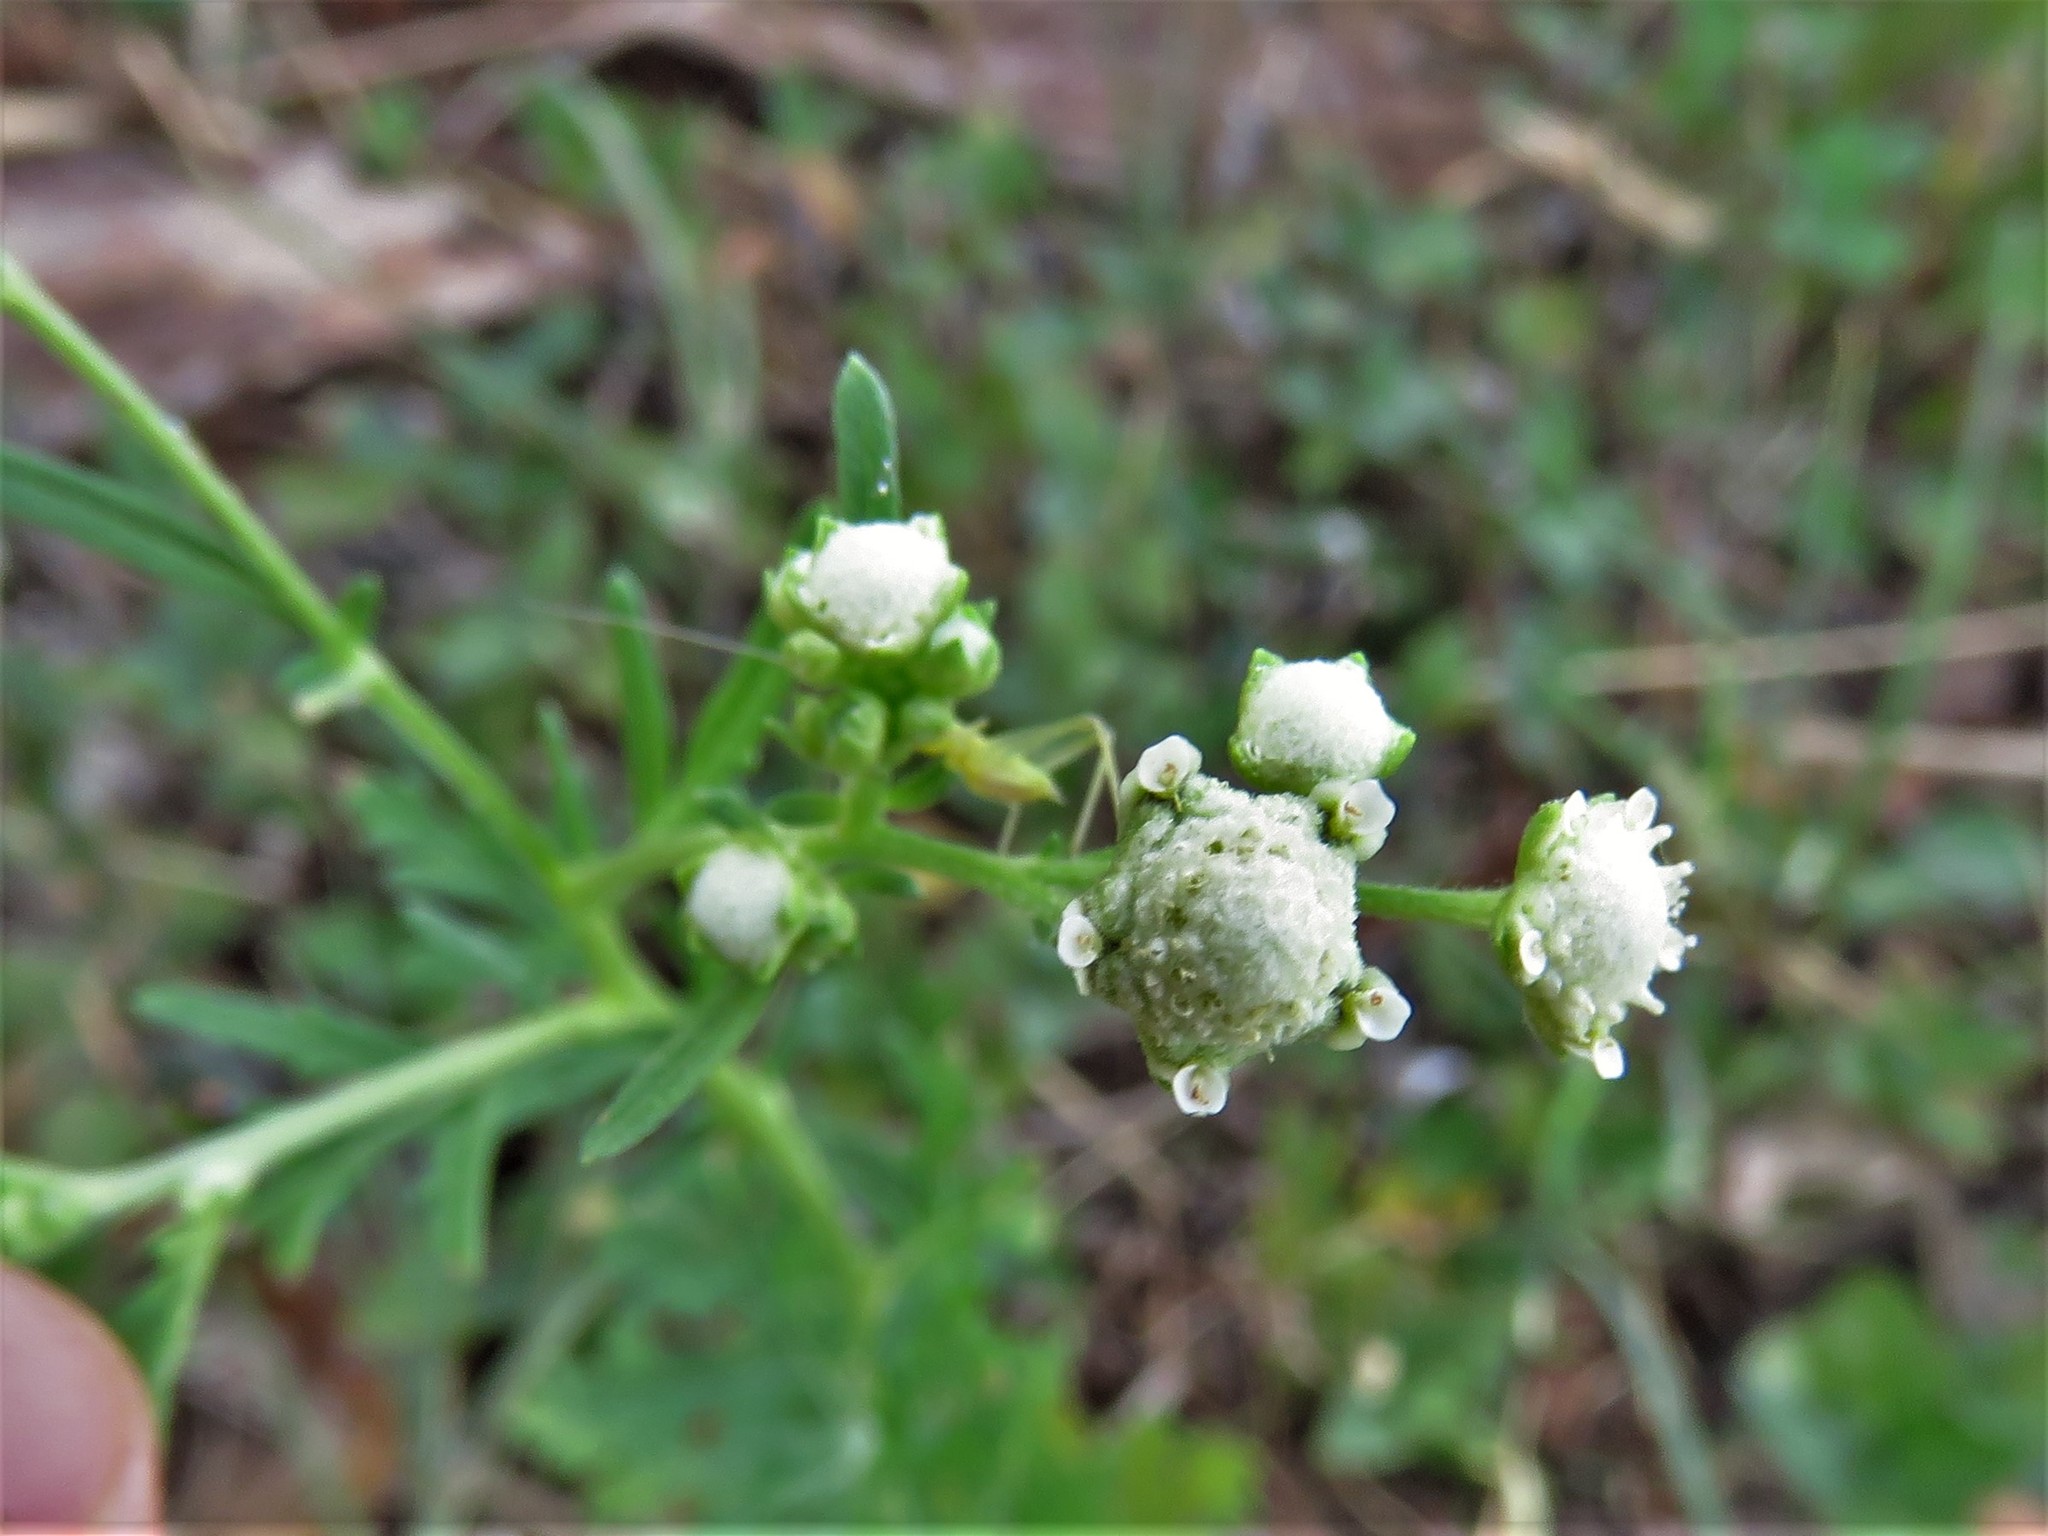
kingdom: Plantae
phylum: Tracheophyta
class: Magnoliopsida
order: Asterales
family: Asteraceae
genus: Parthenium
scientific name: Parthenium hysterophorus
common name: Santa maria feverfew
